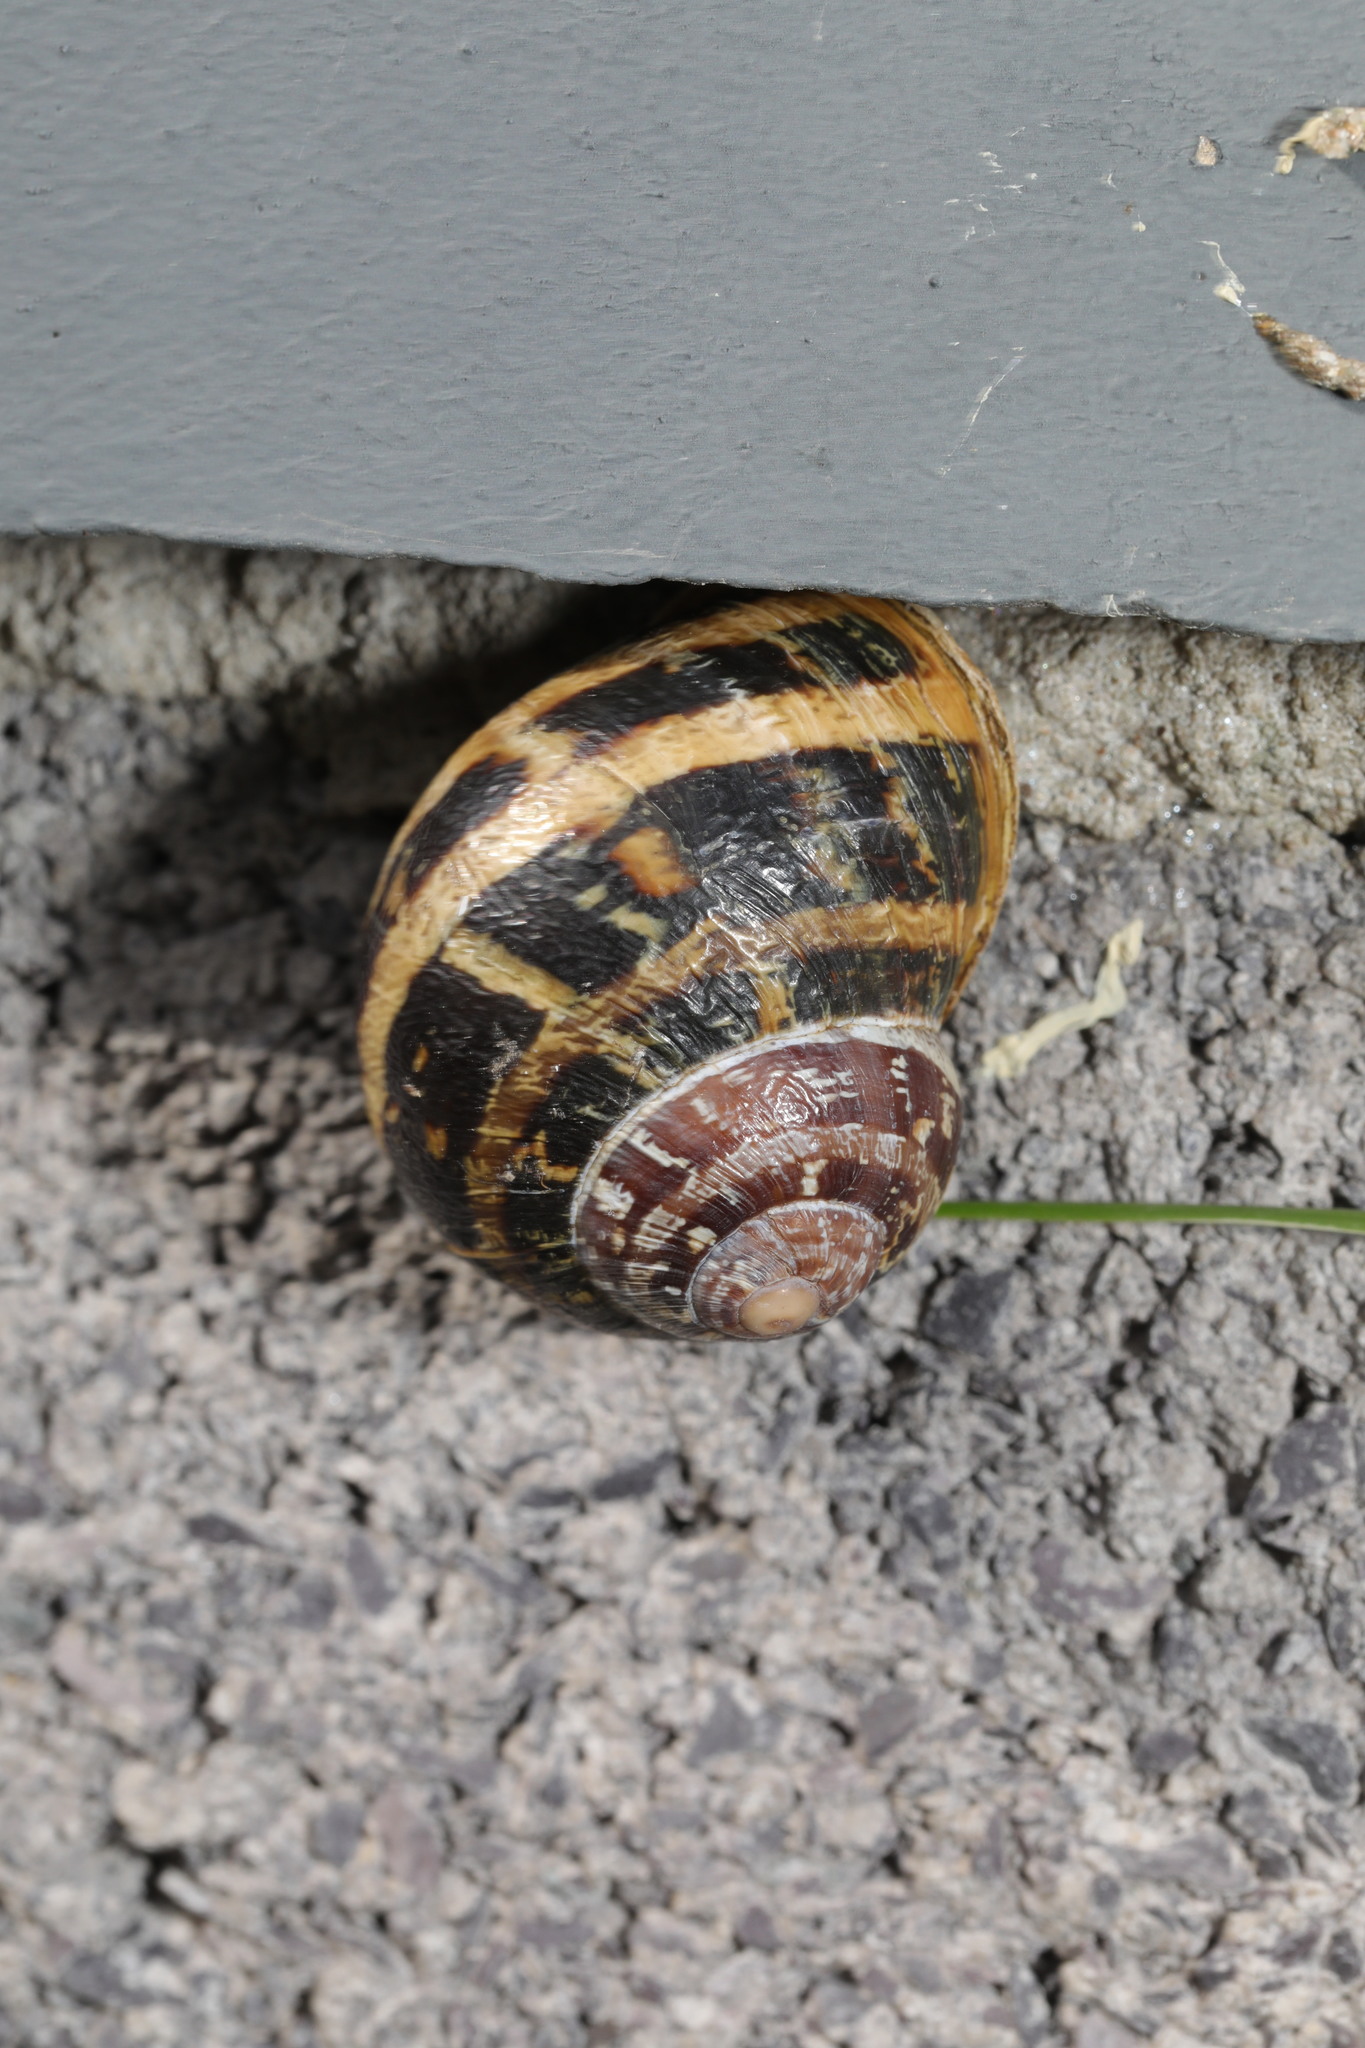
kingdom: Animalia
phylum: Mollusca
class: Gastropoda
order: Stylommatophora
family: Helicidae
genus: Cornu
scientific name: Cornu aspersum
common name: Brown garden snail
